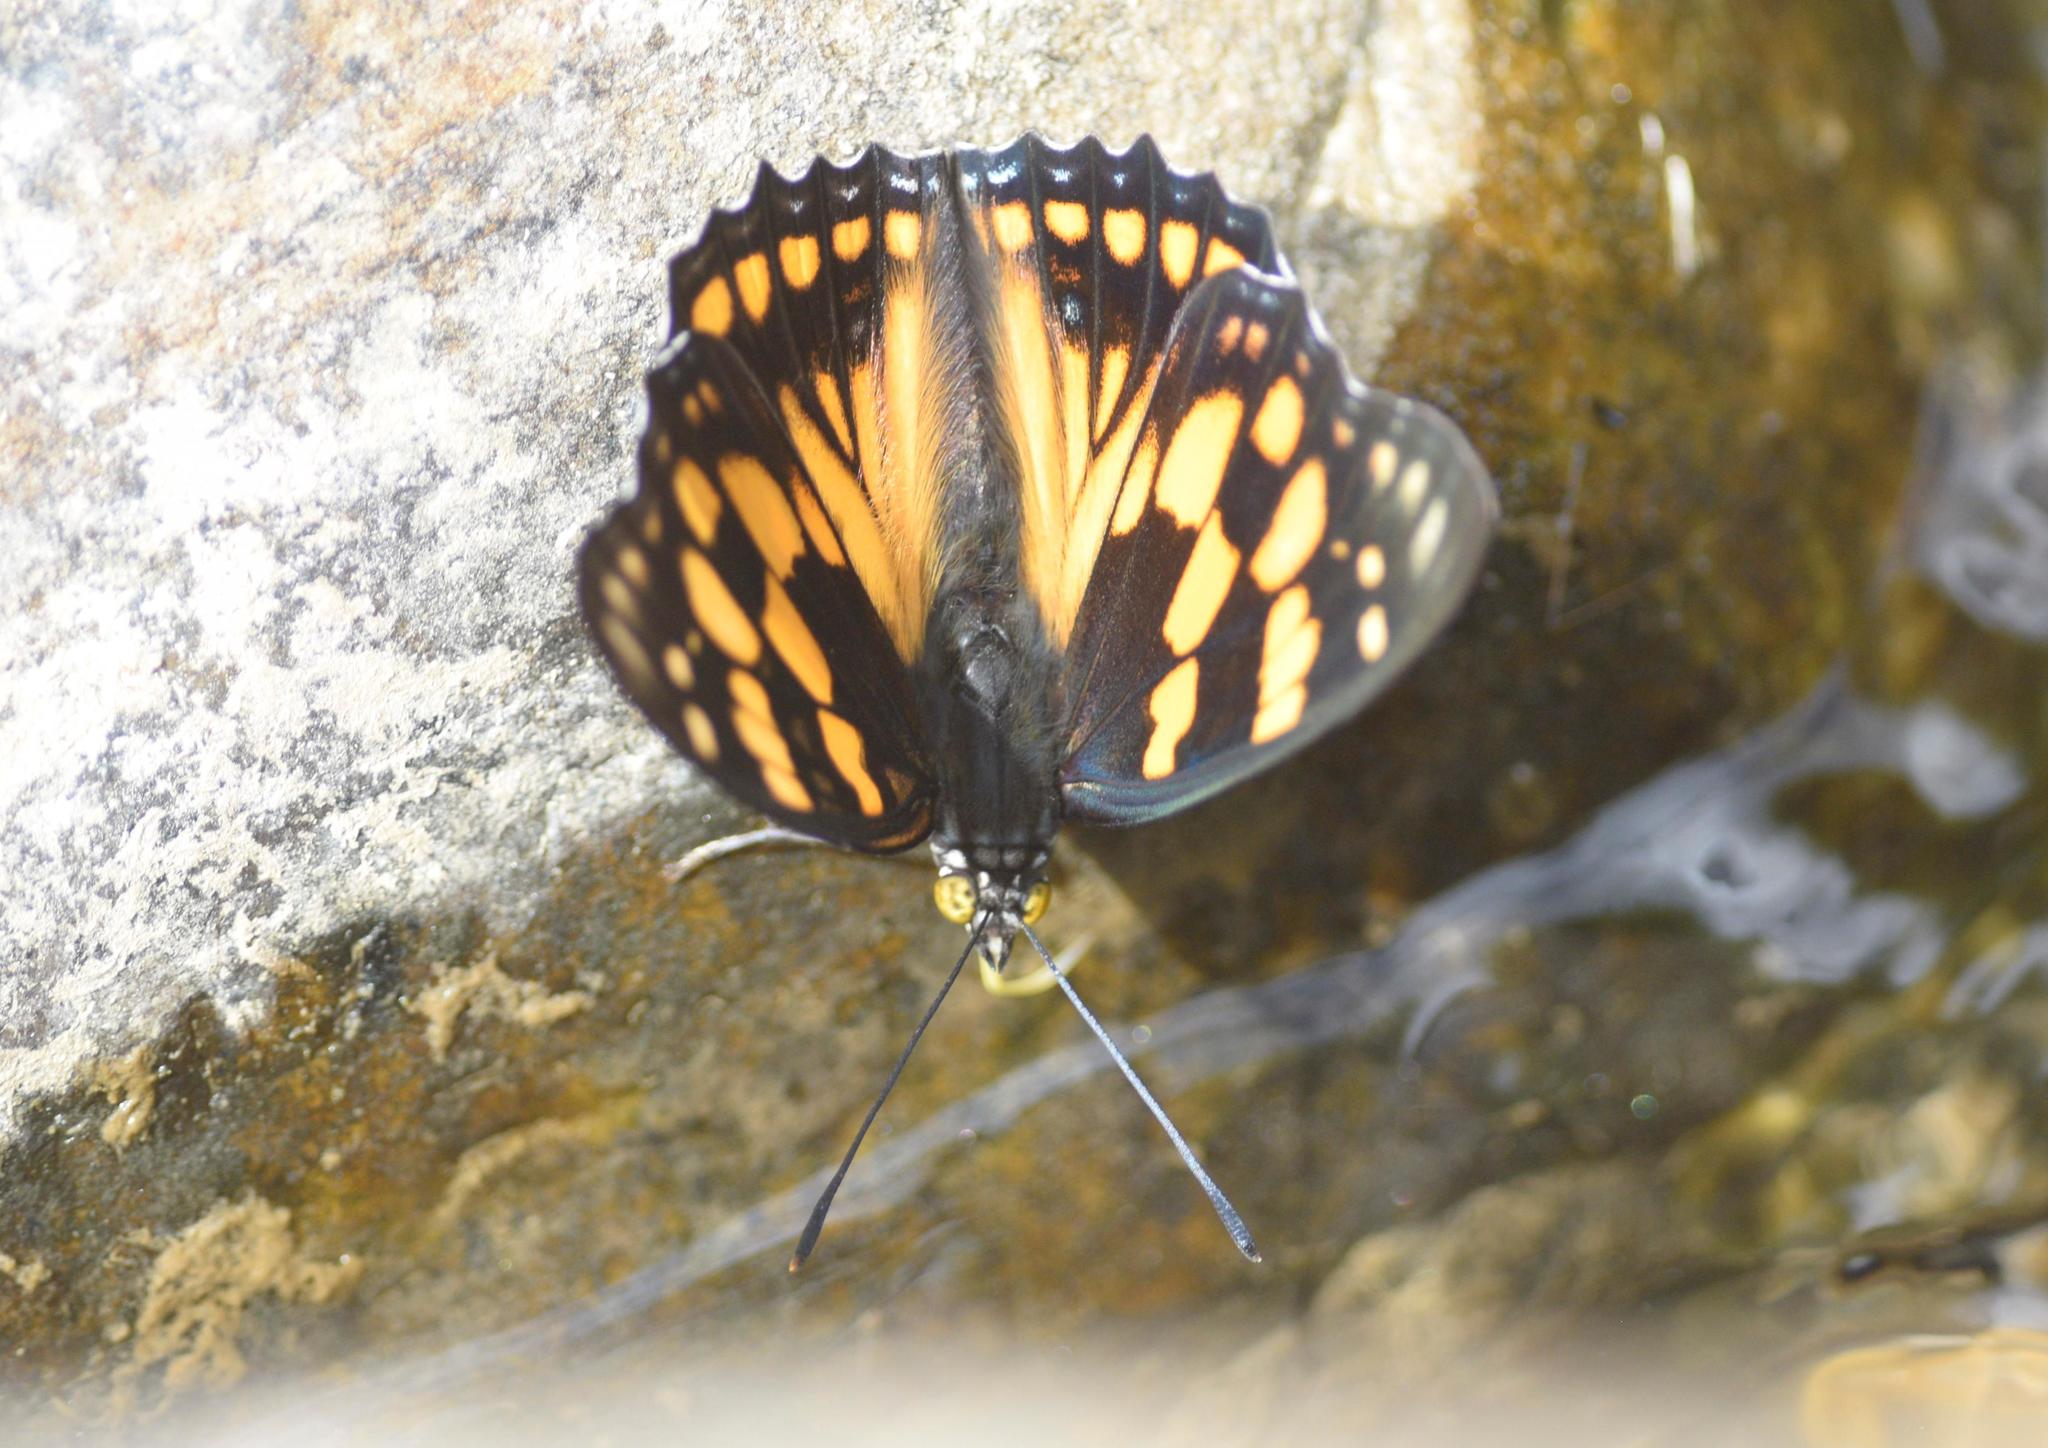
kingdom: Animalia
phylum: Arthropoda
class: Insecta
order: Lepidoptera
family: Nymphalidae
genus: Sephisa
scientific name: Sephisa dichroa
